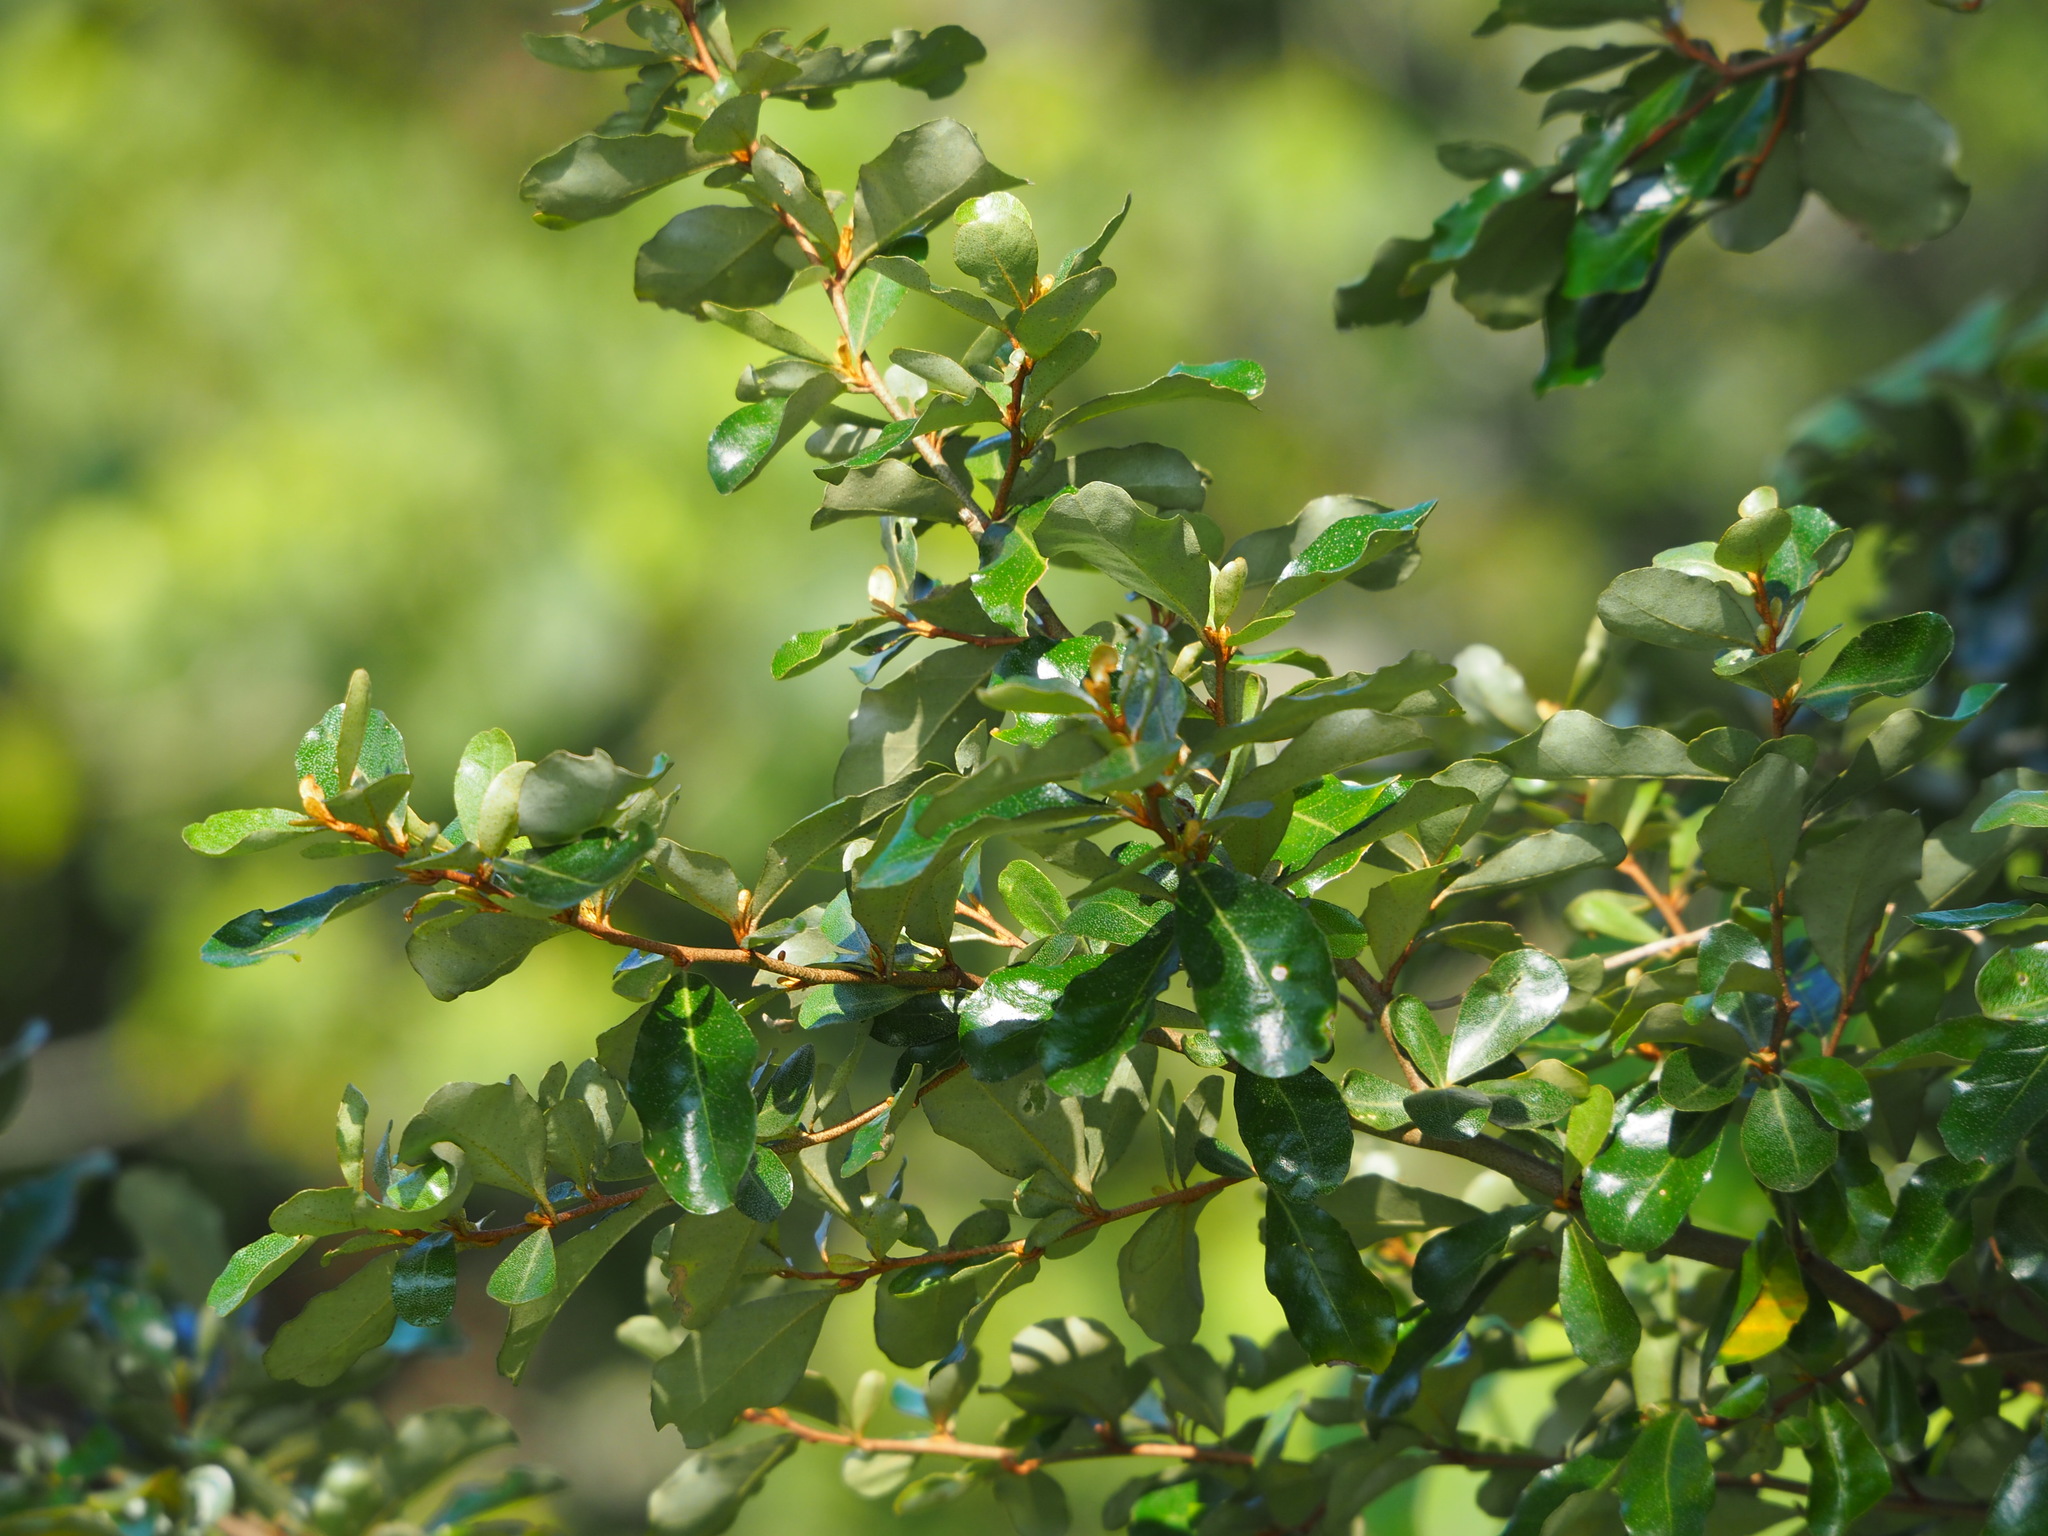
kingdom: Plantae
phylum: Tracheophyta
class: Magnoliopsida
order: Rosales
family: Elaeagnaceae
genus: Elaeagnus
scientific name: Elaeagnus oldhamii
